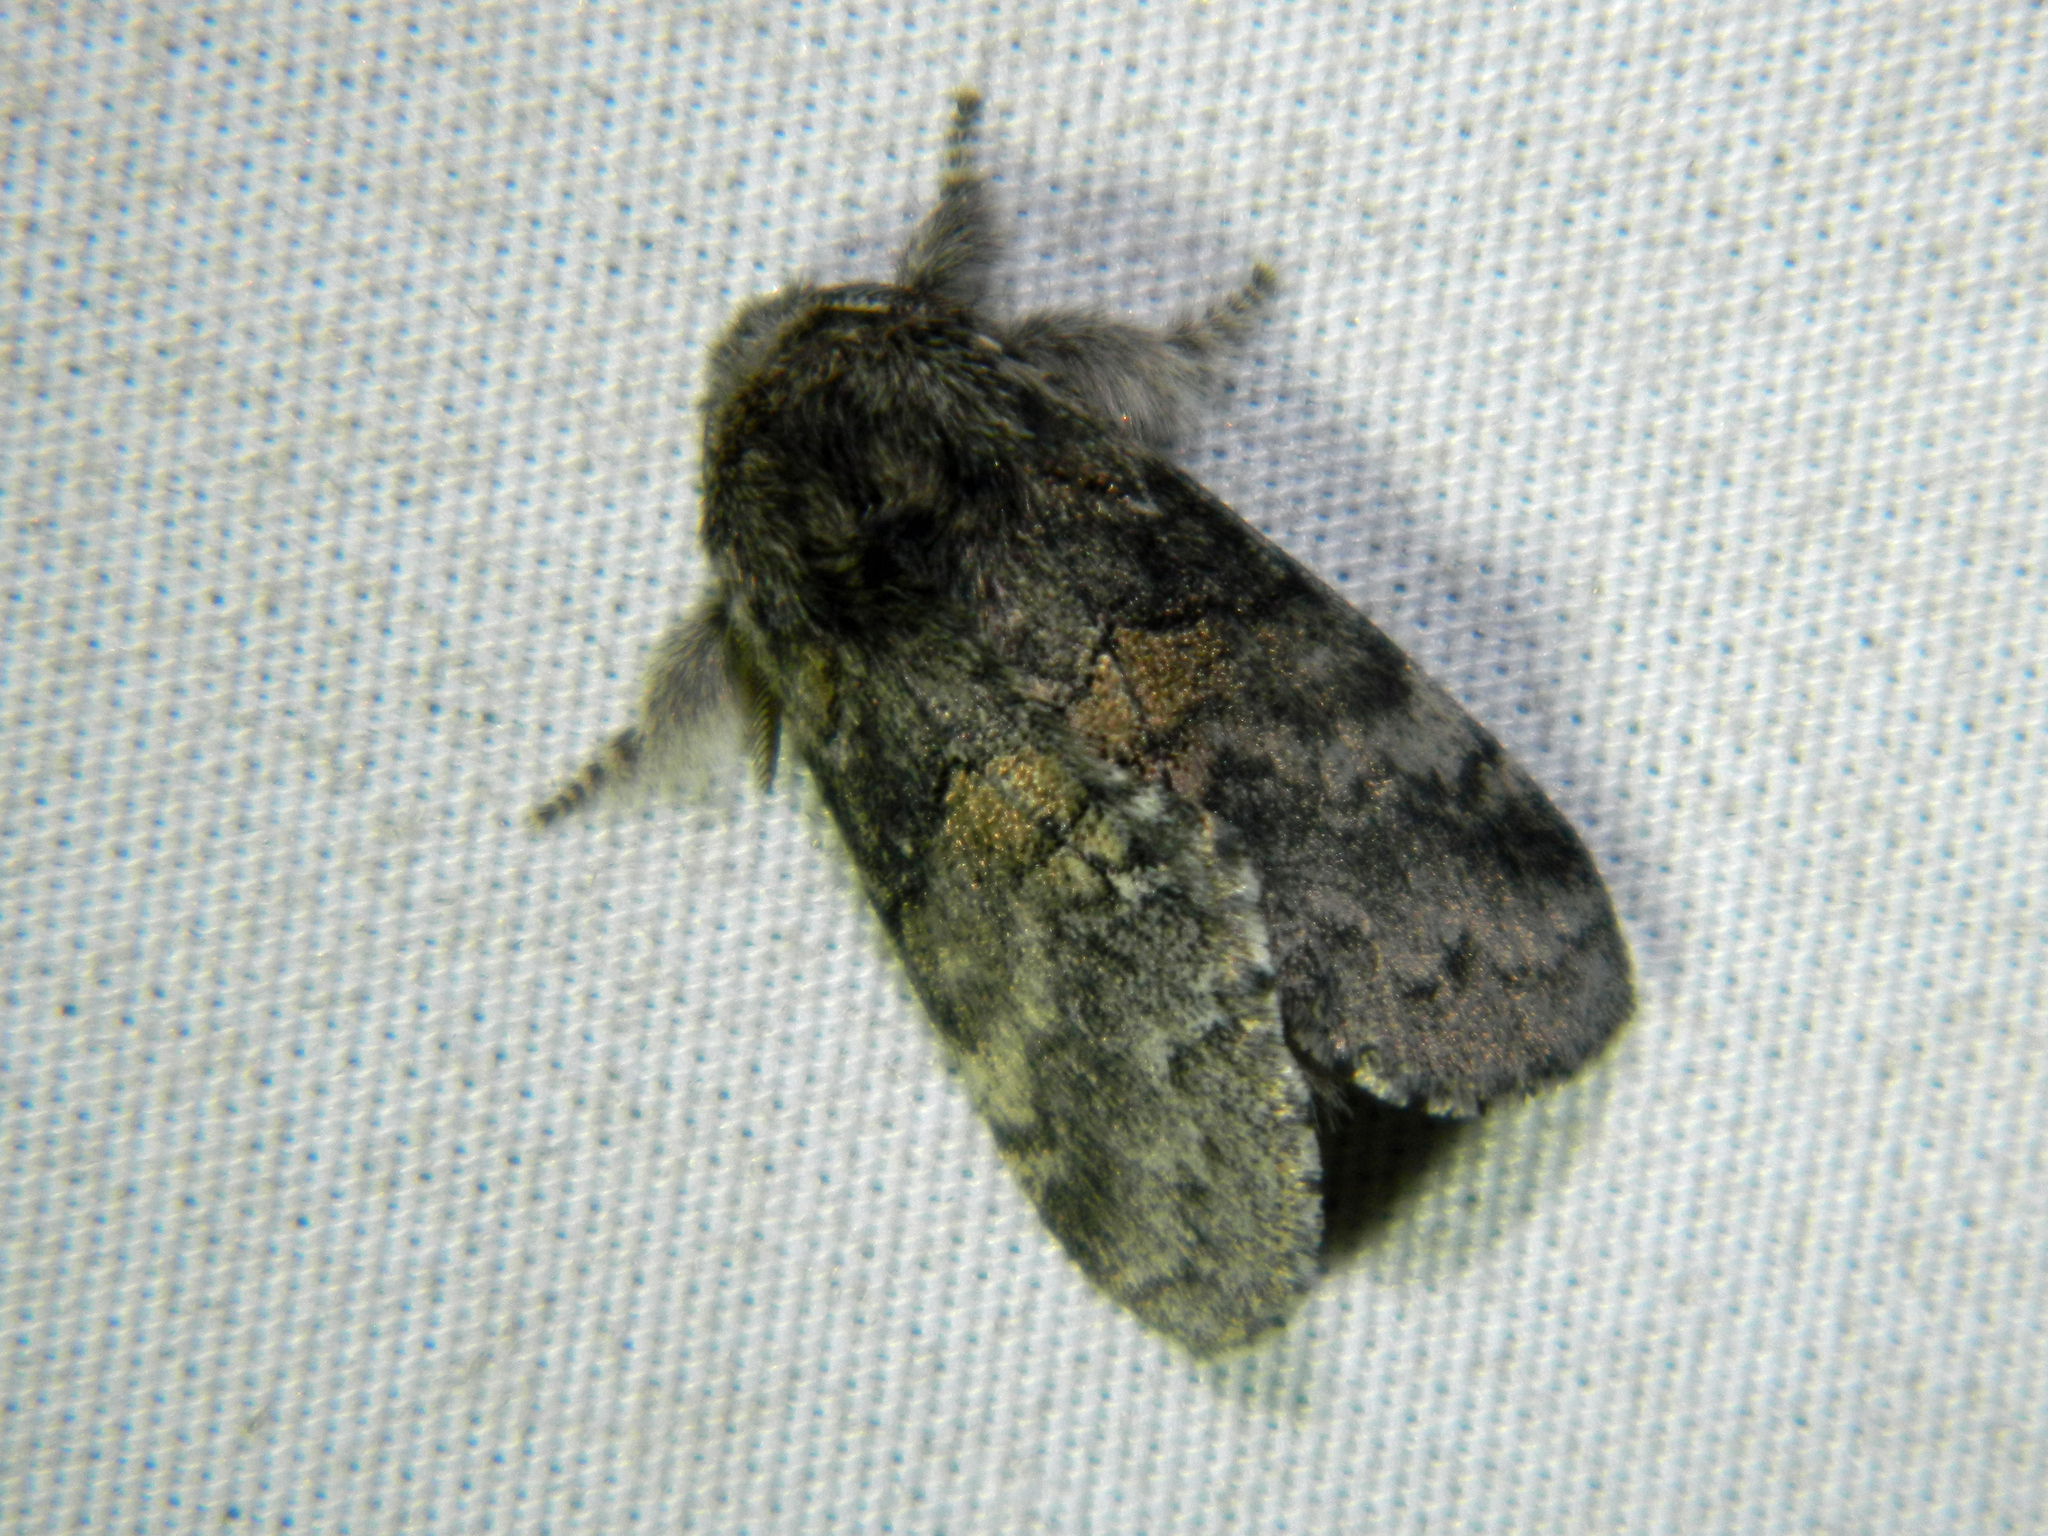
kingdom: Animalia
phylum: Arthropoda
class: Insecta
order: Lepidoptera
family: Notodontidae
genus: Gluphisia
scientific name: Gluphisia septentrionis
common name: Common gluphisia
